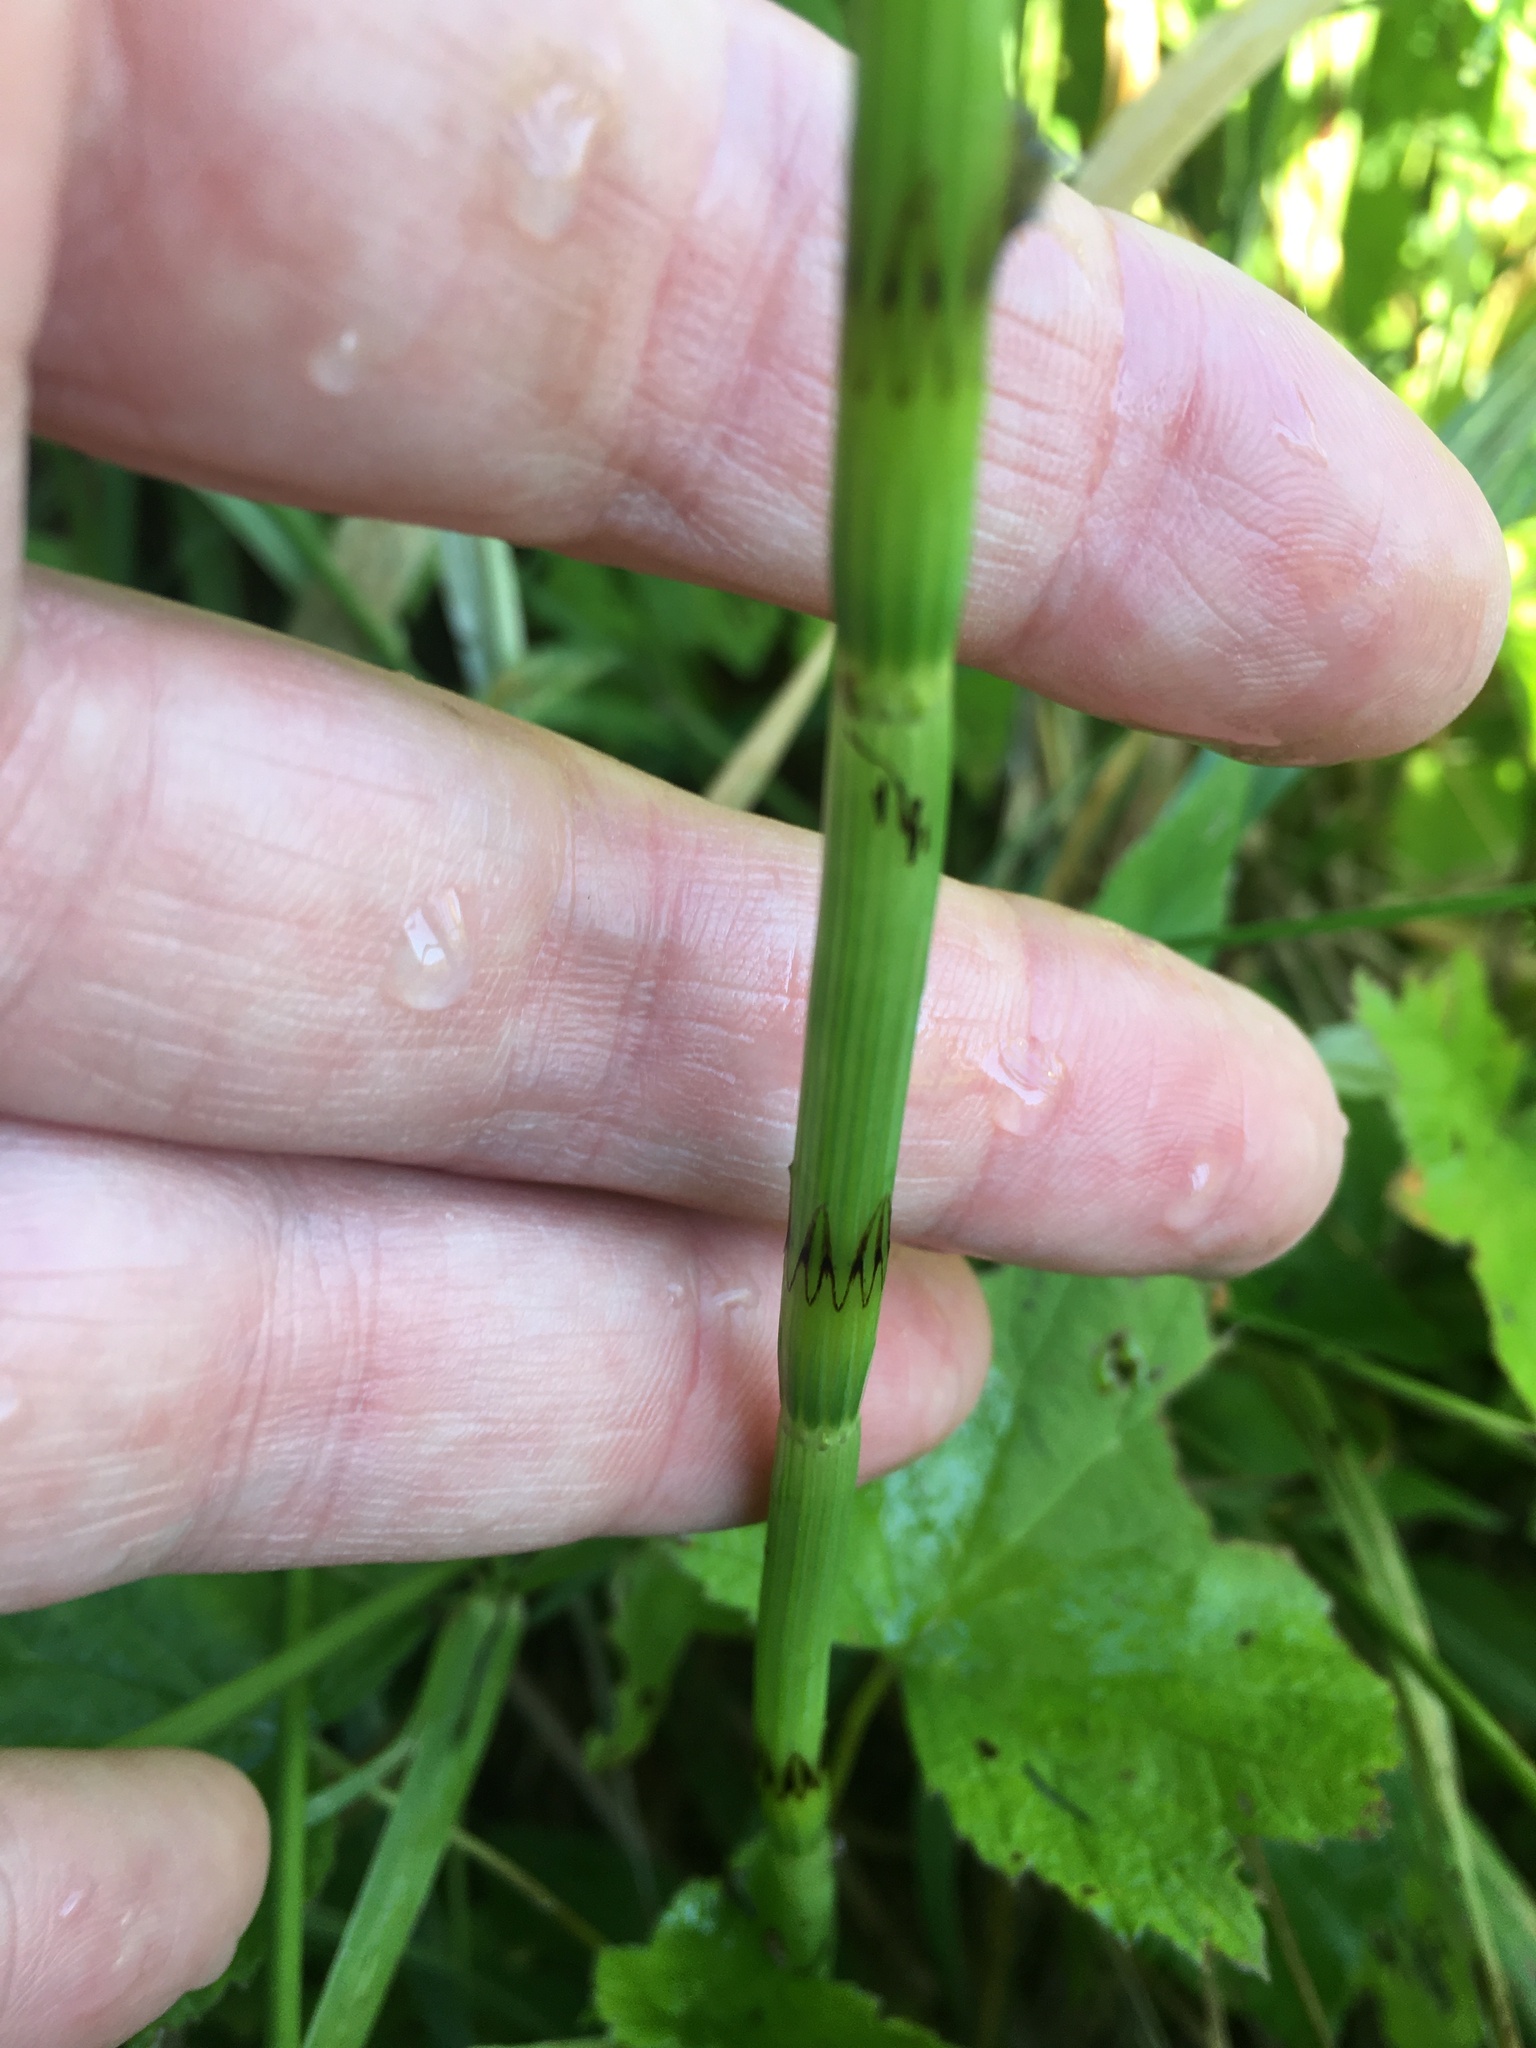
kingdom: Plantae
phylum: Tracheophyta
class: Polypodiopsida
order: Equisetales
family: Equisetaceae
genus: Equisetum
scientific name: Equisetum palustre
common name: Marsh horsetail
